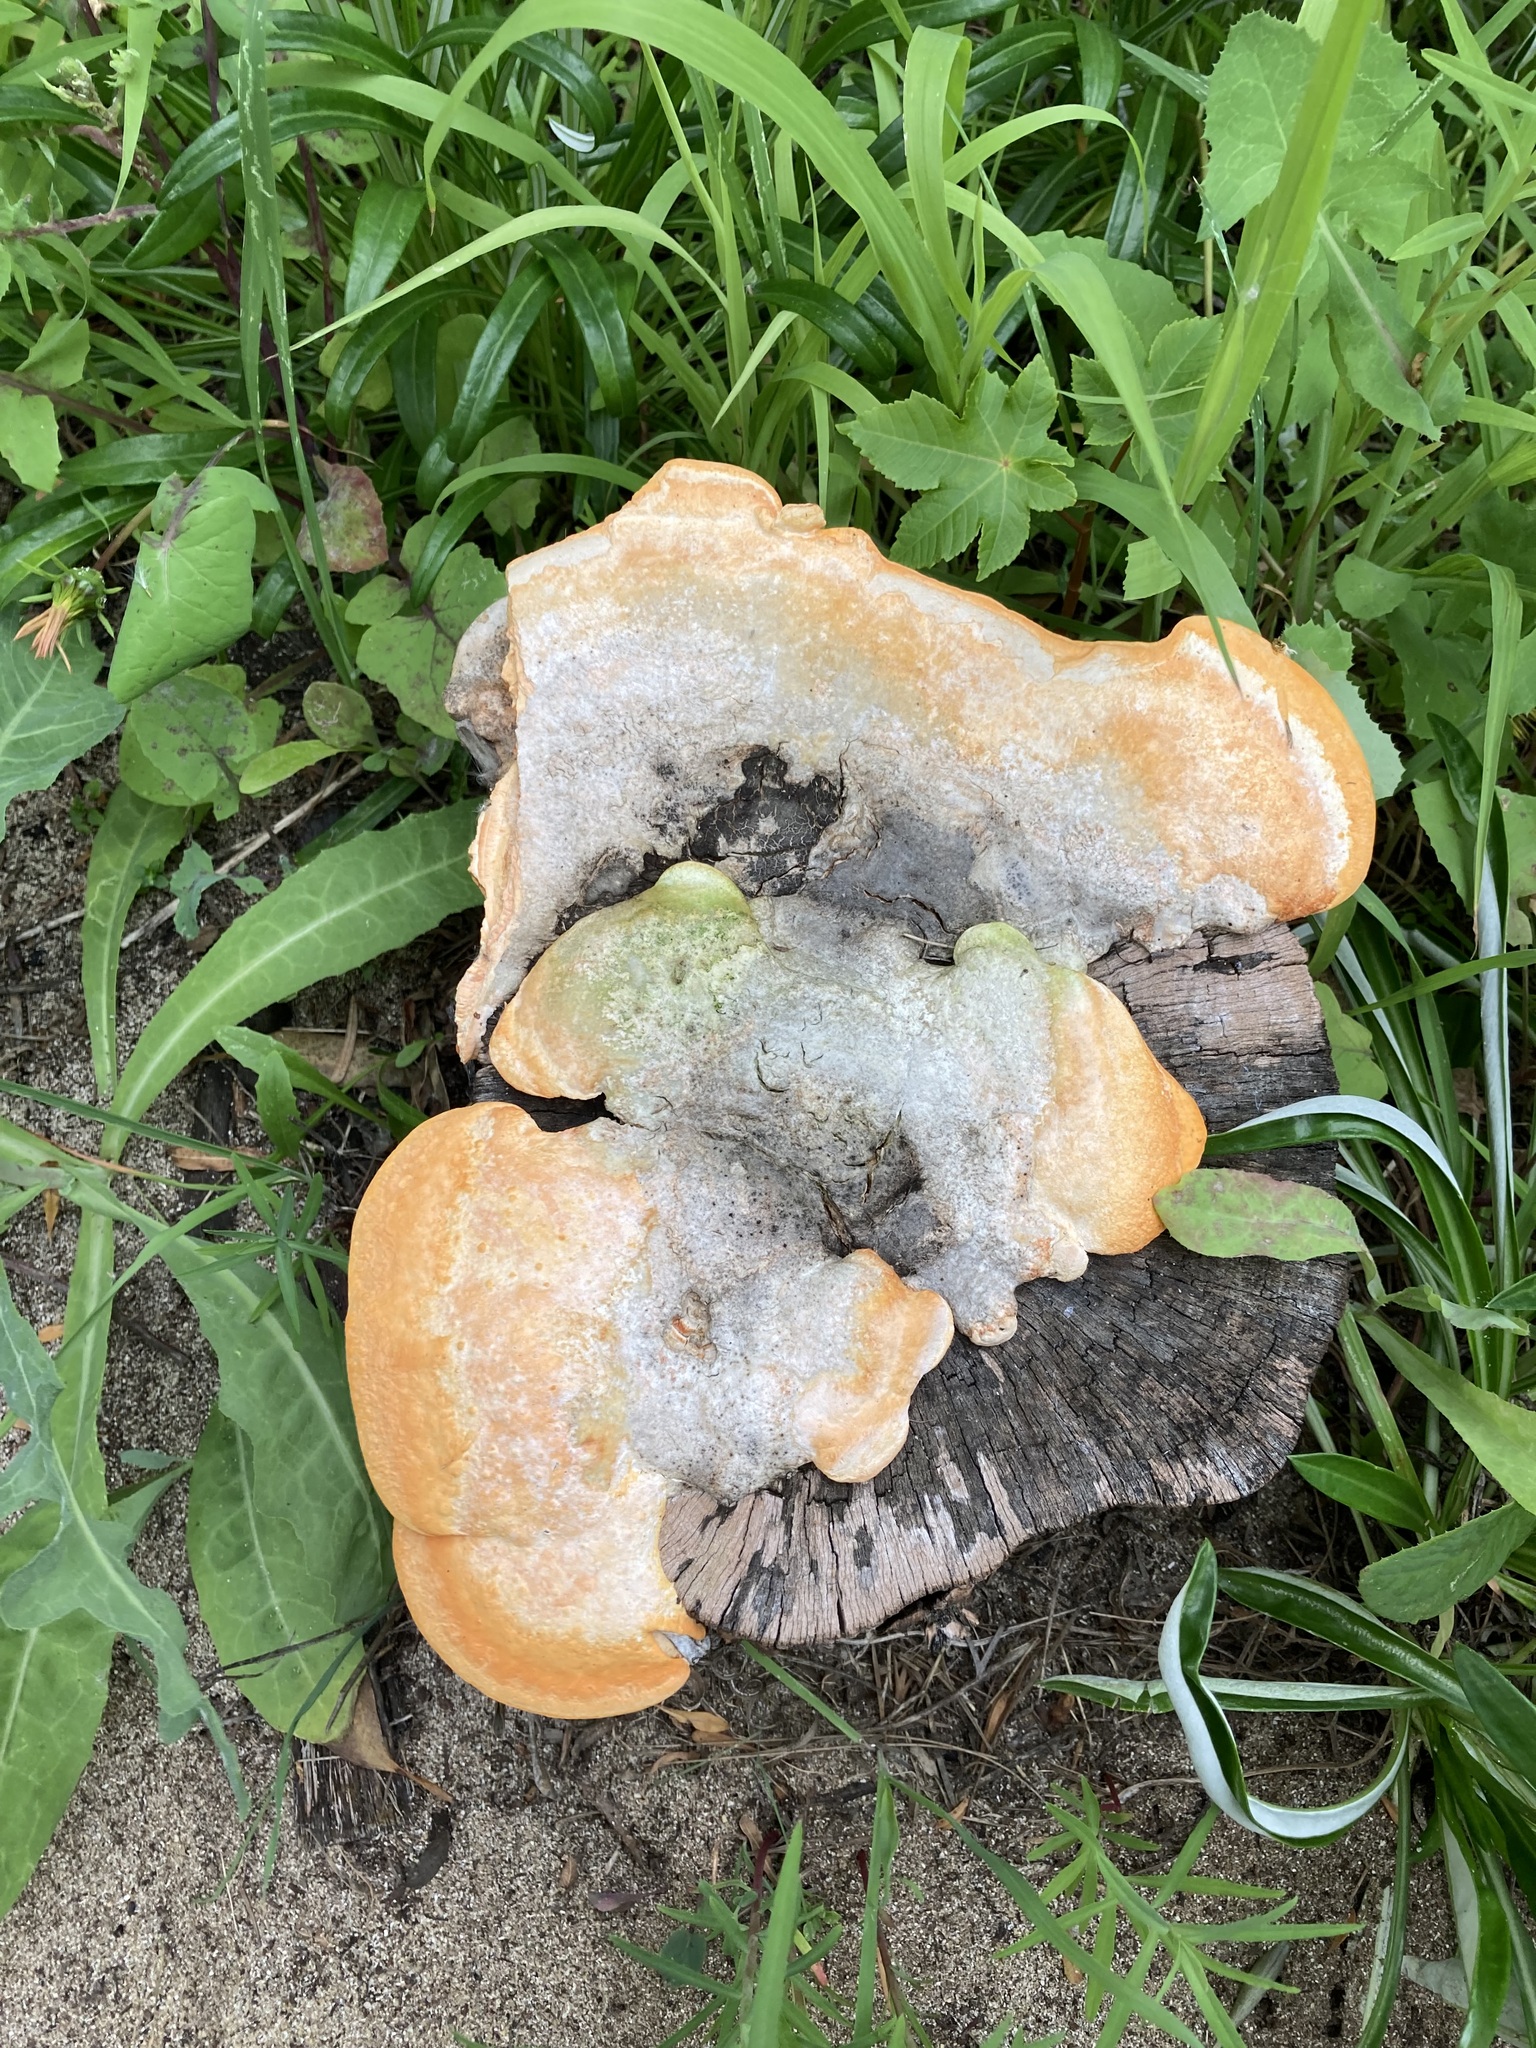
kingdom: Fungi
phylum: Basidiomycota
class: Agaricomycetes
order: Polyporales
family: Polyporaceae
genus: Trametes
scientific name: Trametes coccinea
